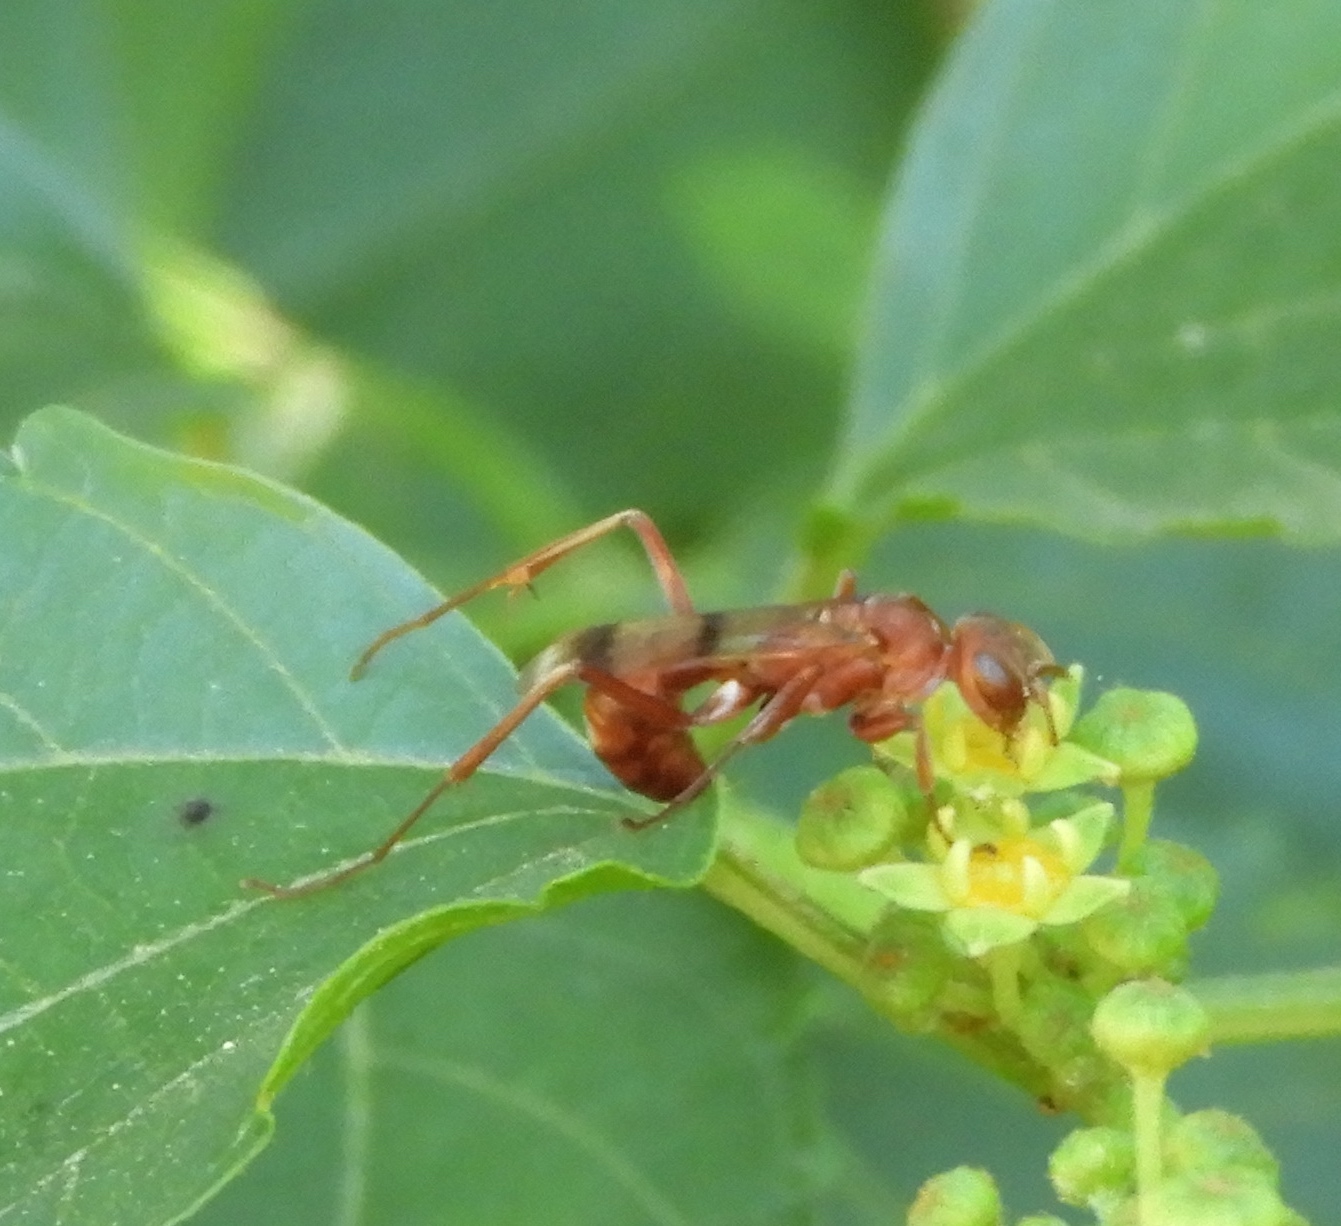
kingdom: Animalia
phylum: Arthropoda
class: Insecta
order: Hymenoptera
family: Pompilidae
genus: Ageniella
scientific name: Ageniella accepta
